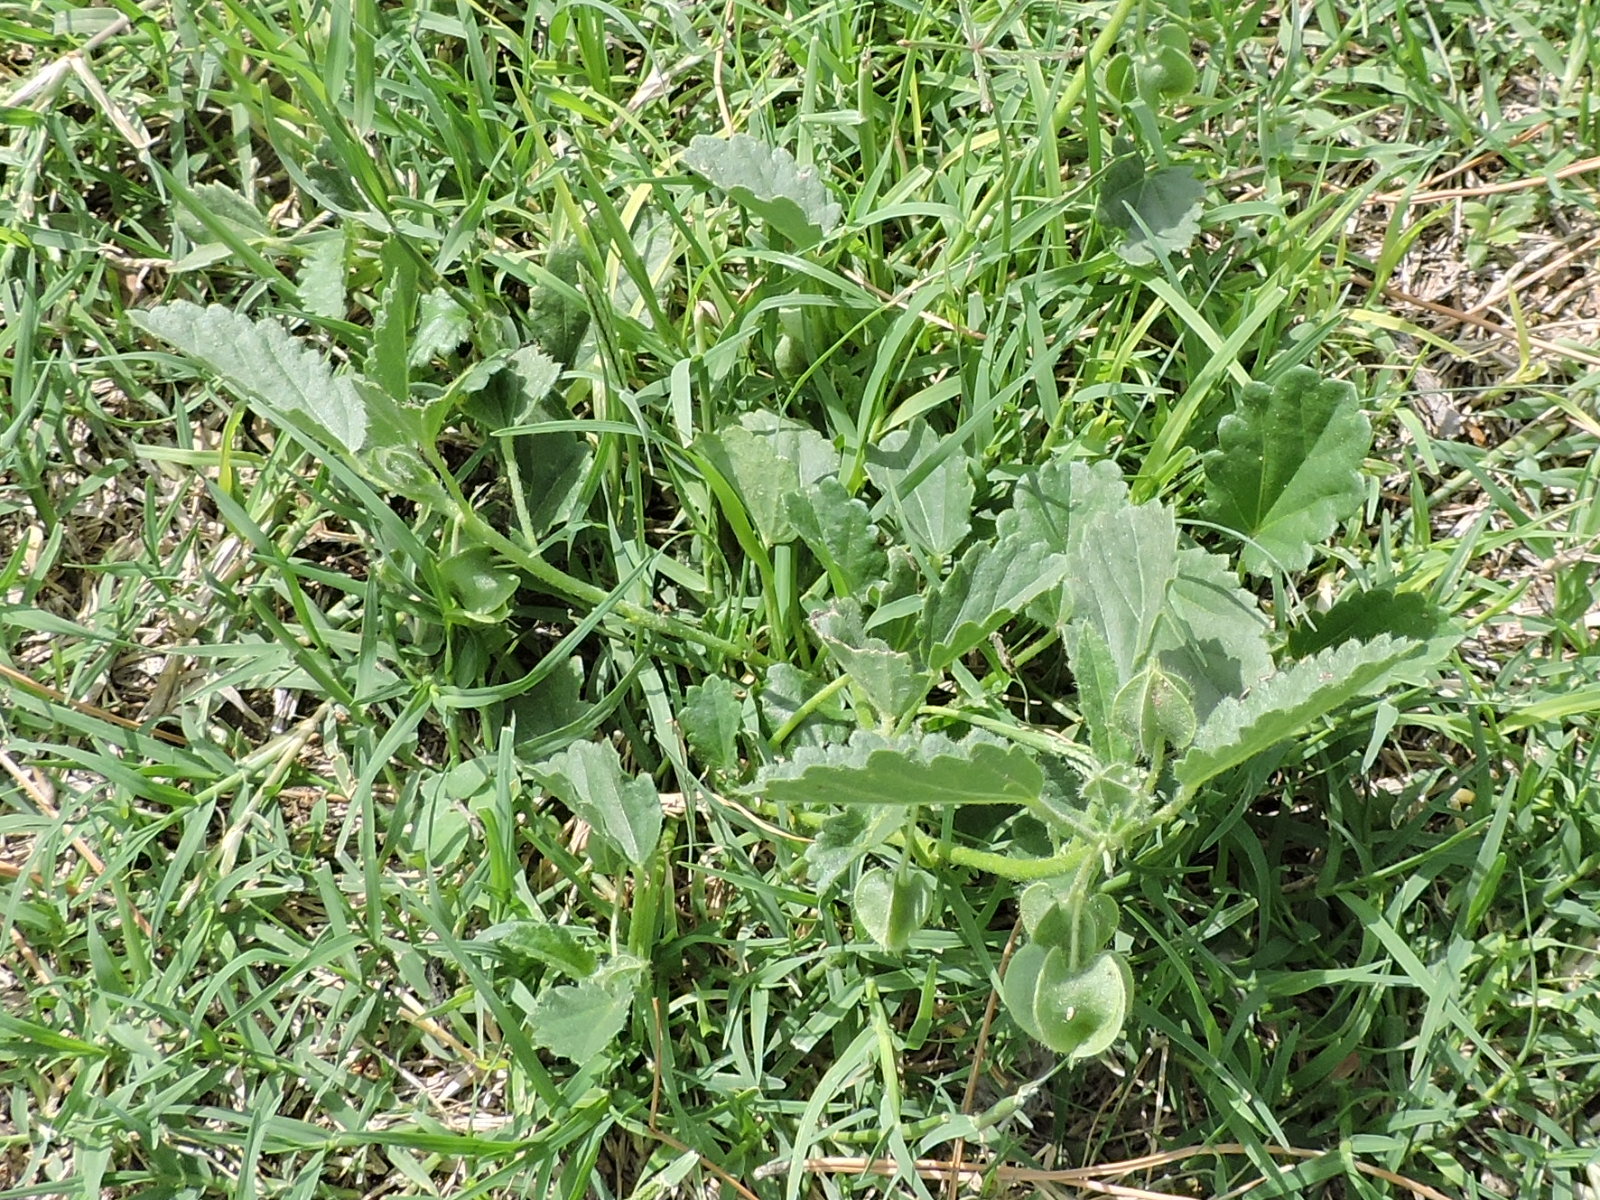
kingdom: Plantae
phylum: Tracheophyta
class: Magnoliopsida
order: Malvales
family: Malvaceae
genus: Rhynchosida
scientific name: Rhynchosida physocalyx
